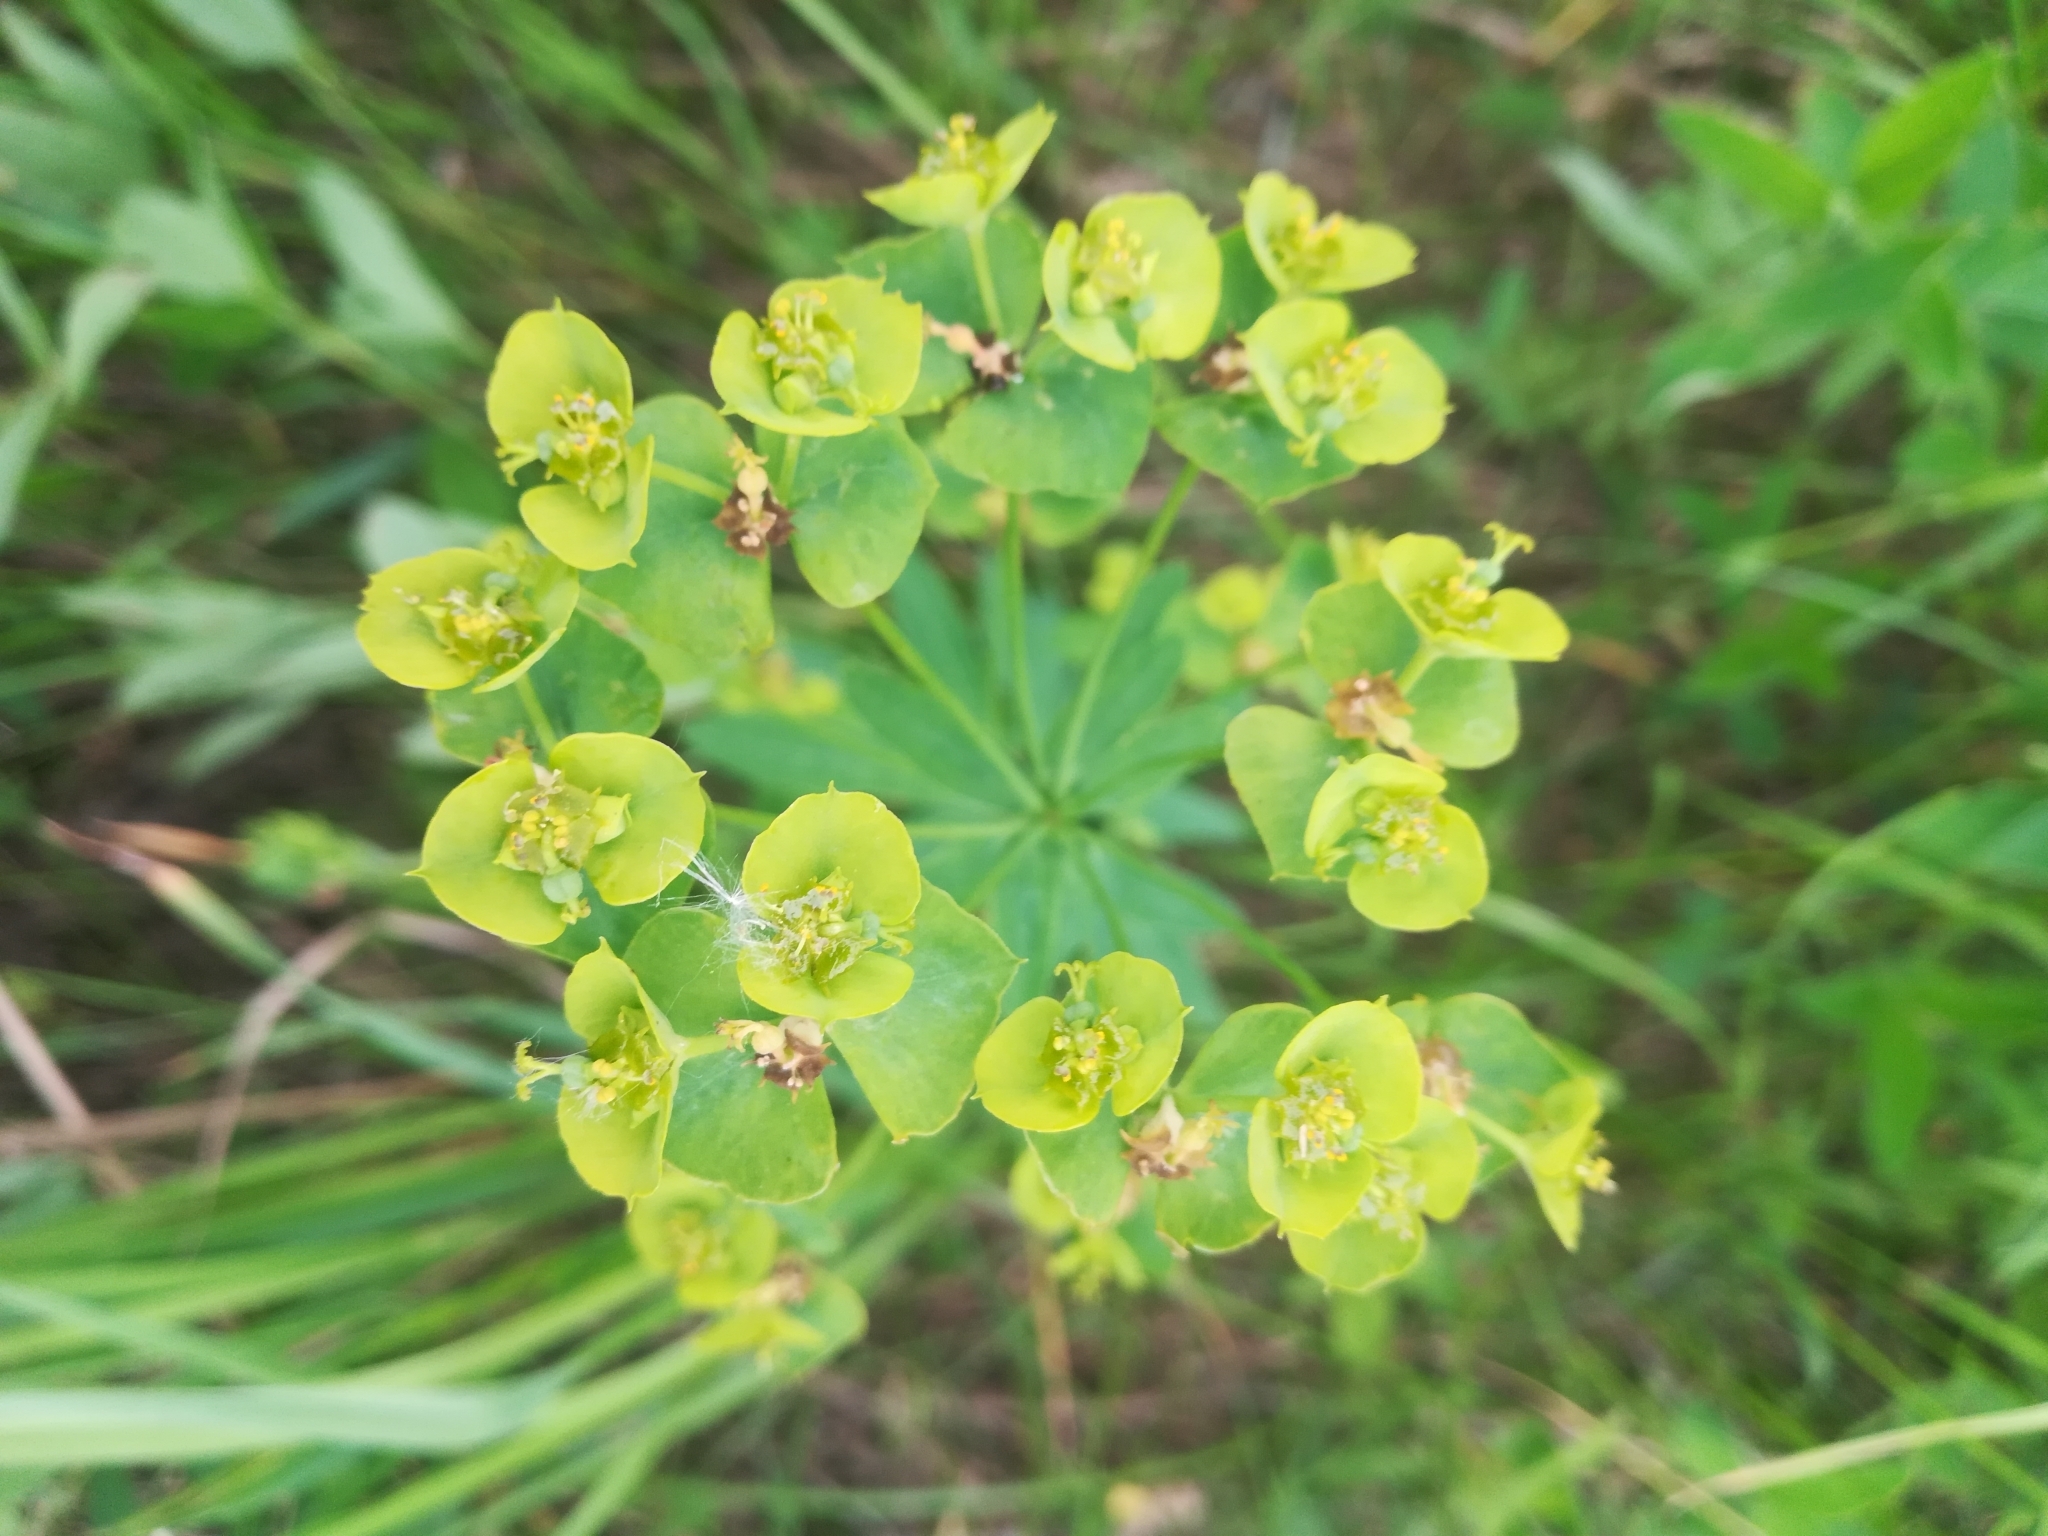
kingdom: Plantae
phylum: Tracheophyta
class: Magnoliopsida
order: Malpighiales
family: Euphorbiaceae
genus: Euphorbia
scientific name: Euphorbia virgata
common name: Leafy spurge
